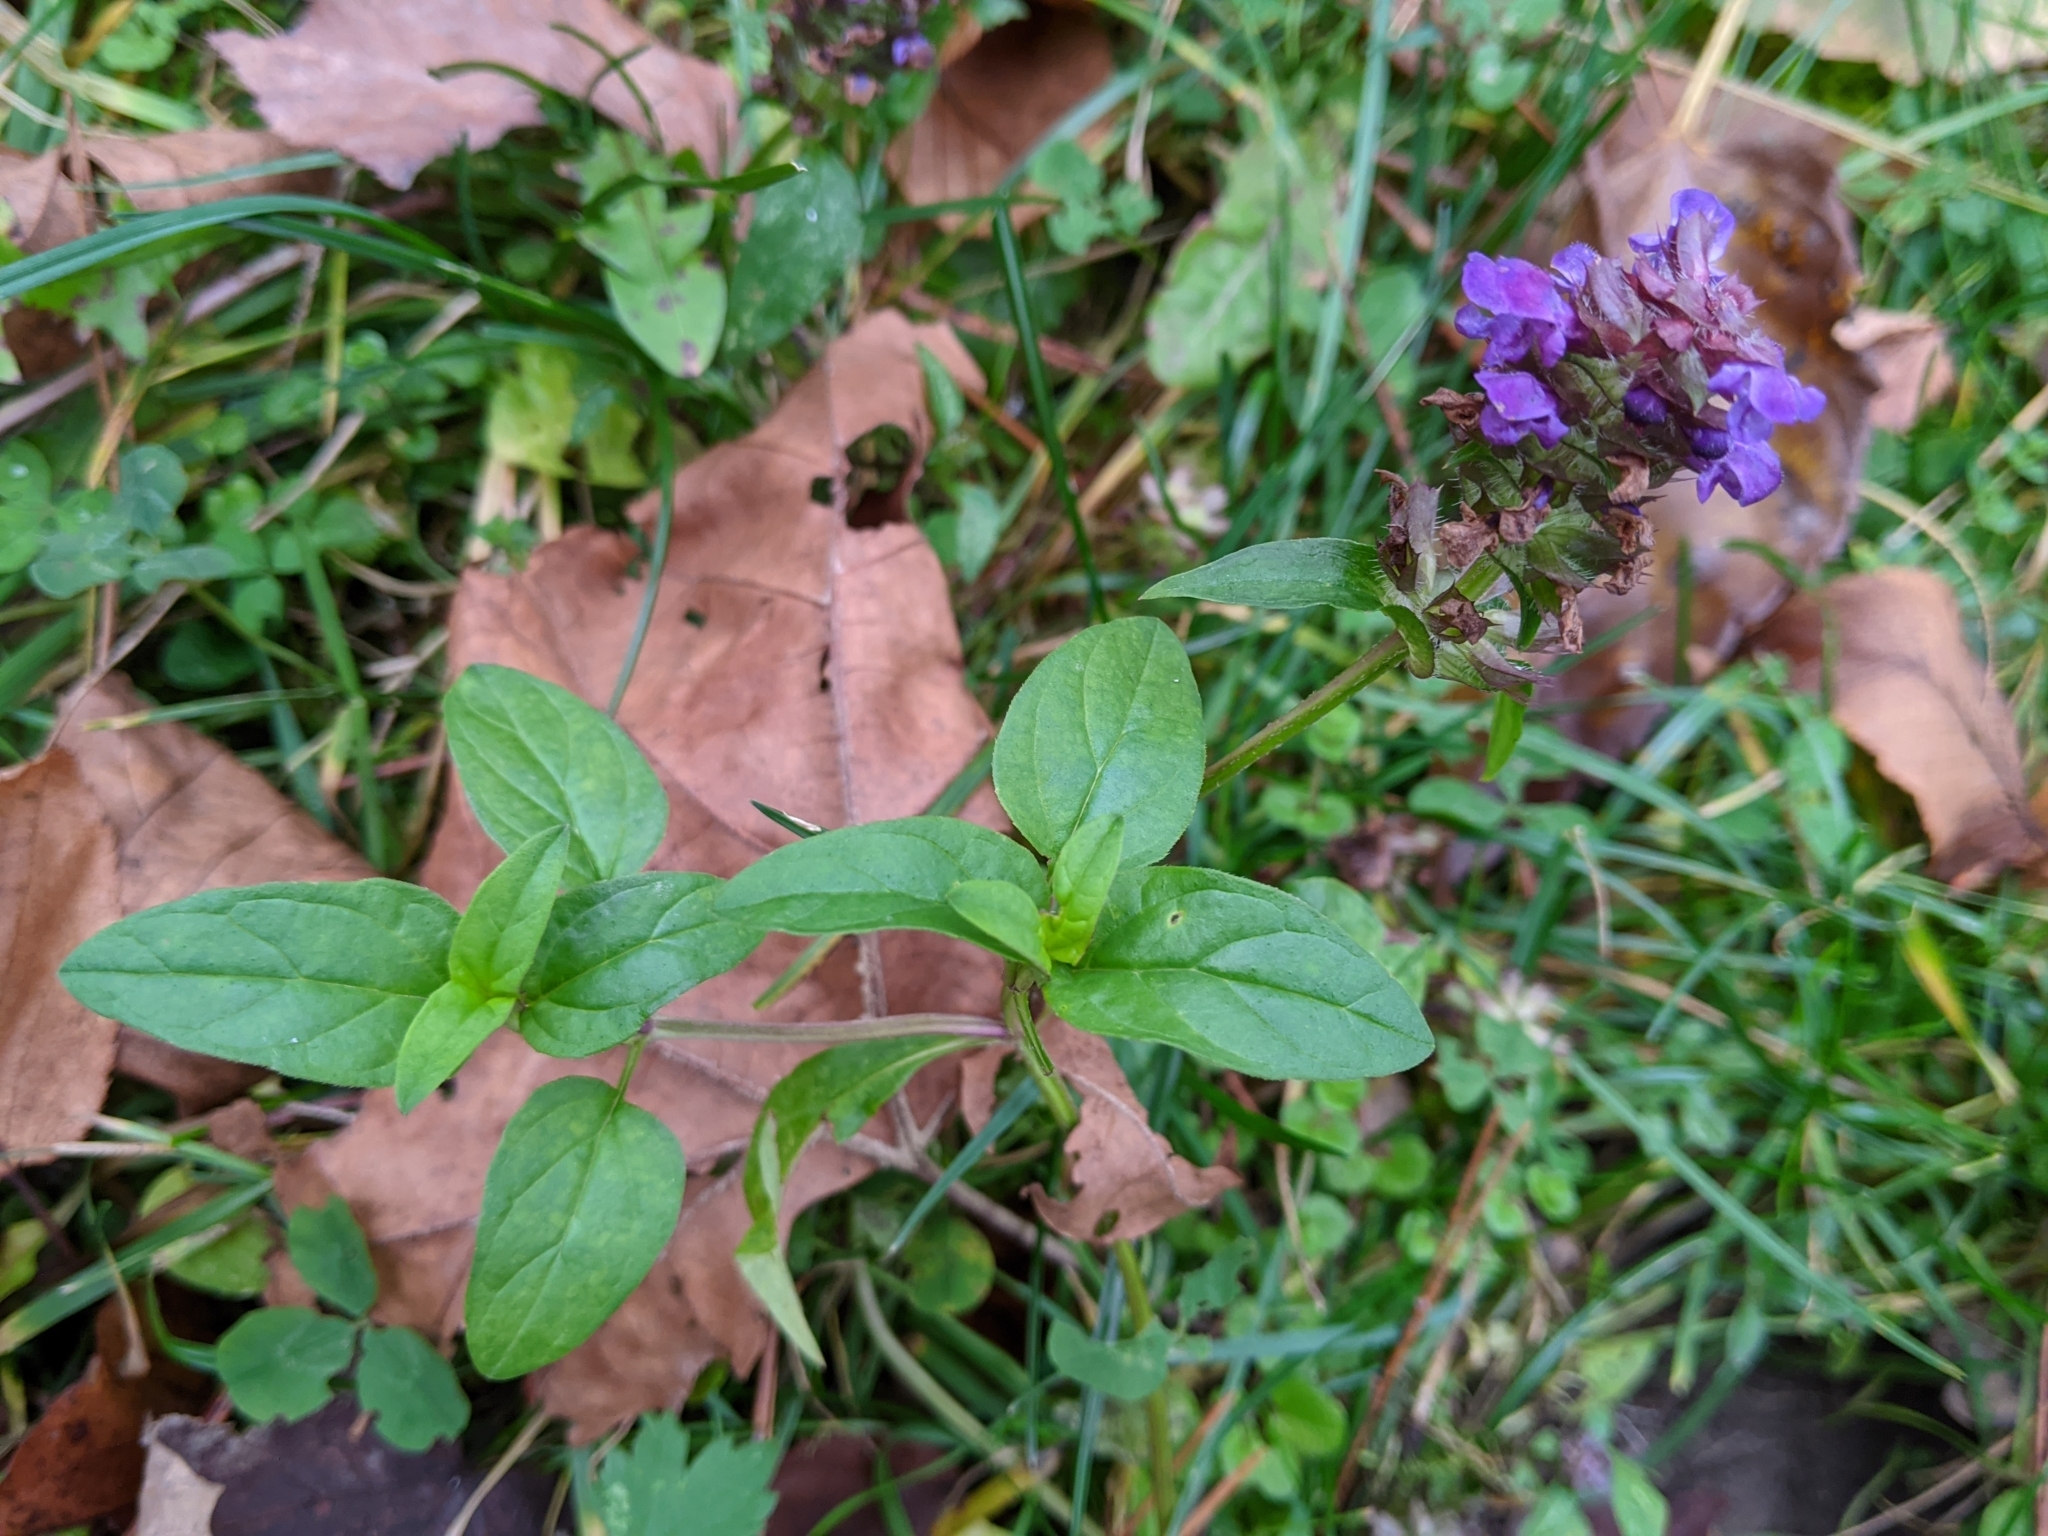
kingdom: Plantae
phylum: Tracheophyta
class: Magnoliopsida
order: Lamiales
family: Lamiaceae
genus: Prunella
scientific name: Prunella vulgaris
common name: Heal-all
